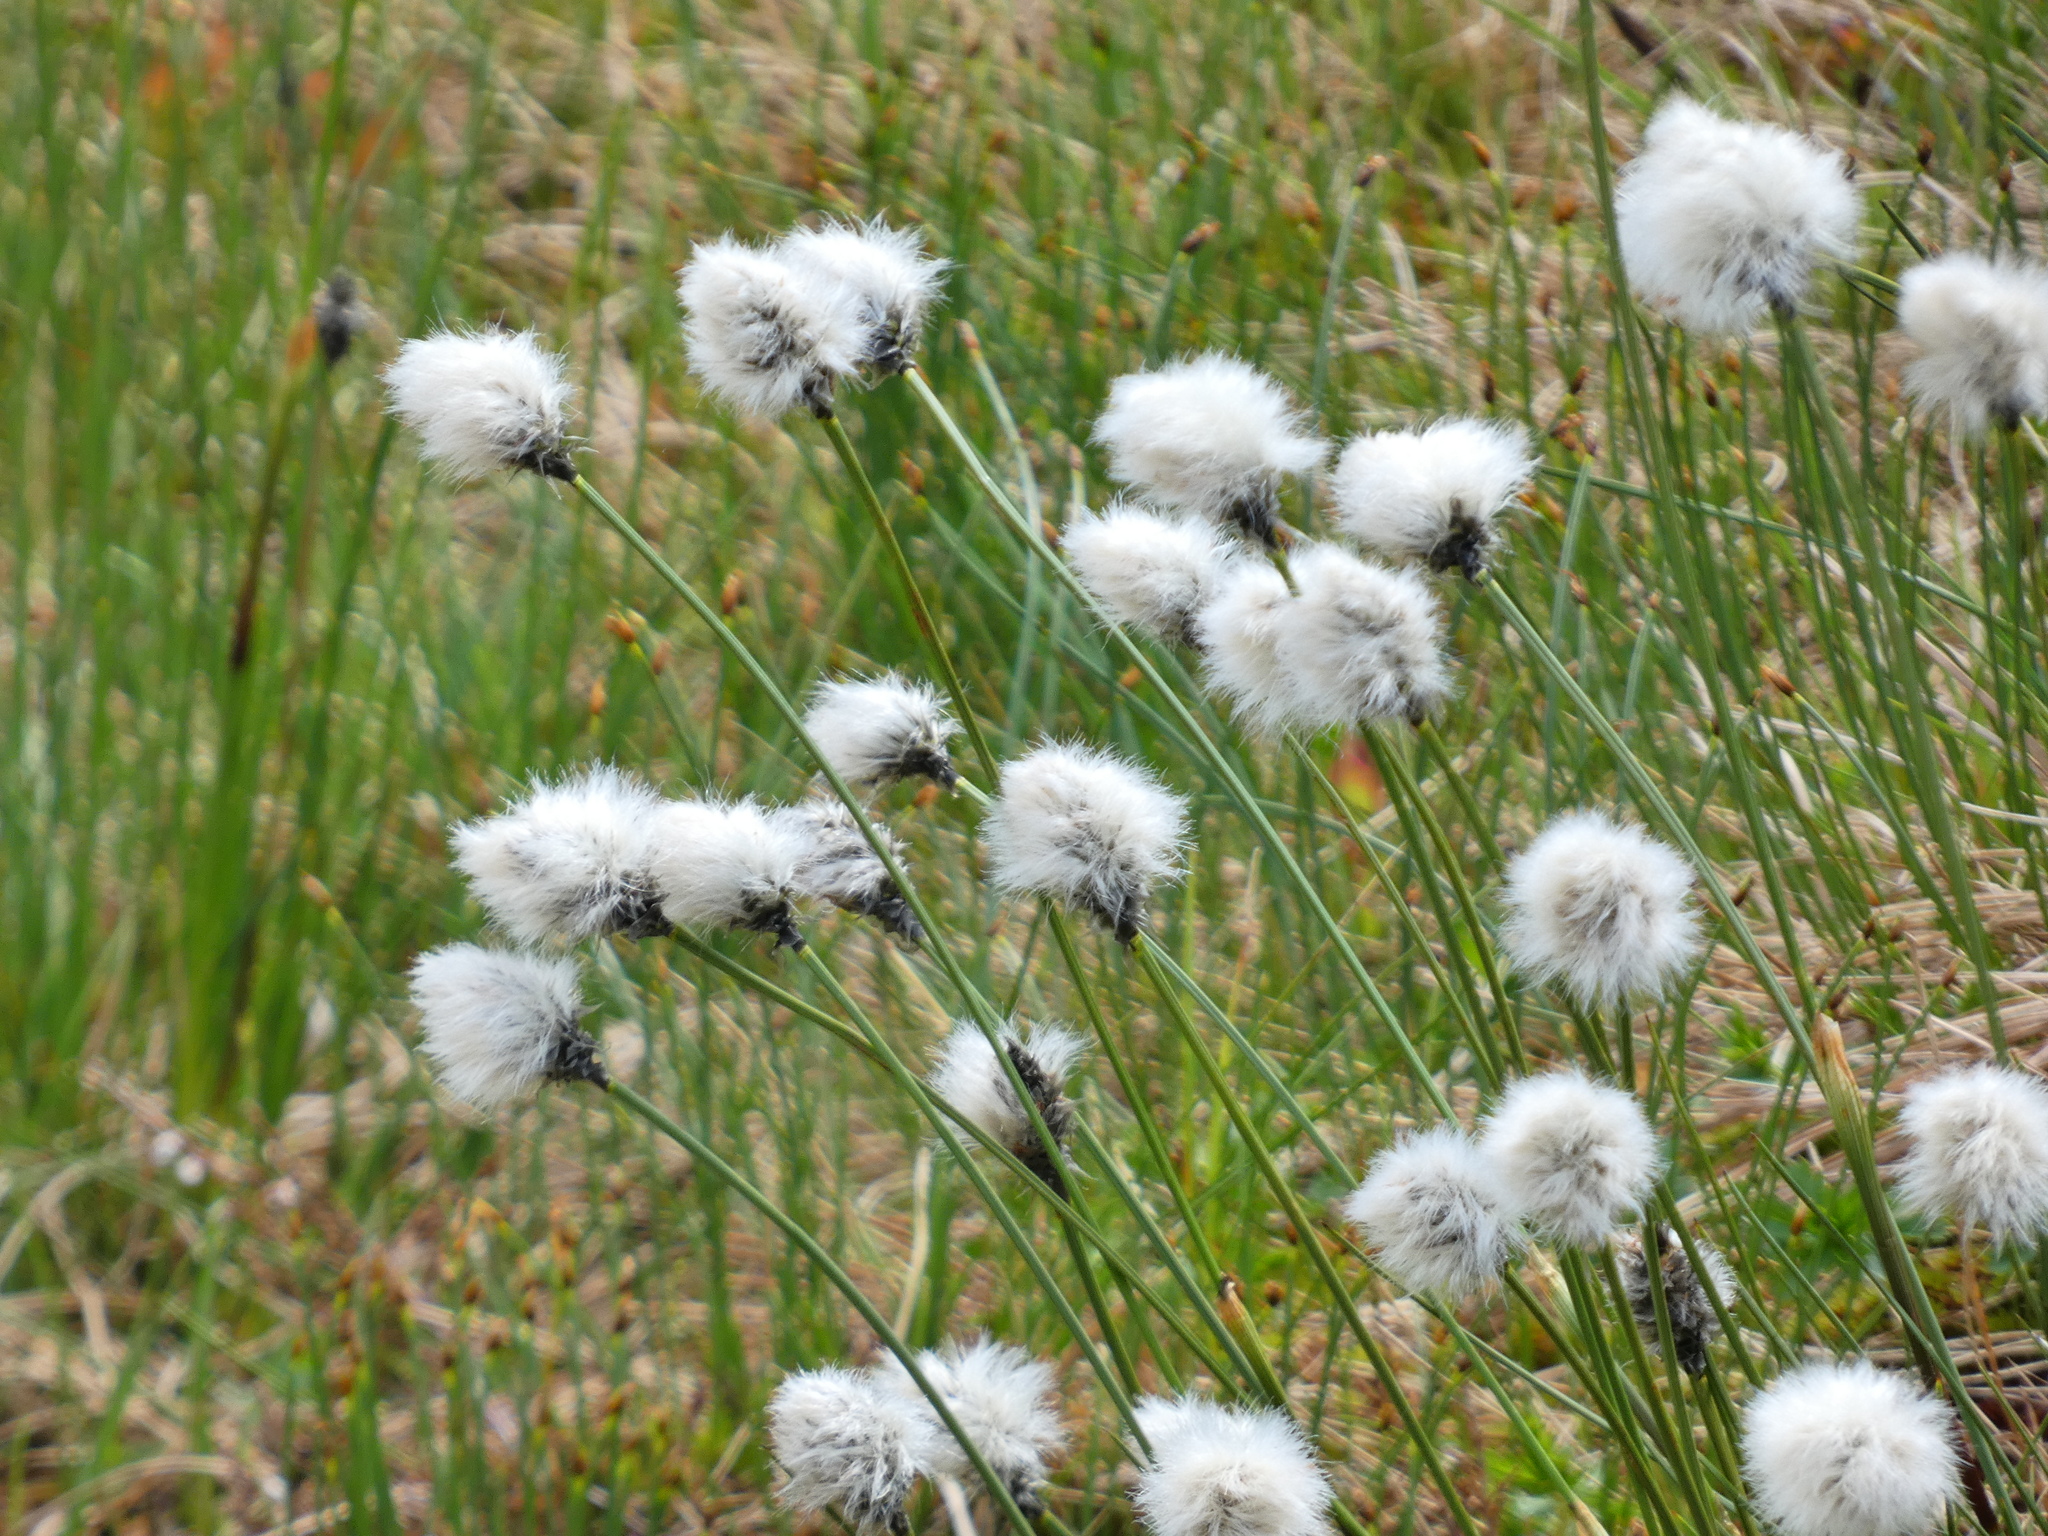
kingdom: Plantae
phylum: Tracheophyta
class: Liliopsida
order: Poales
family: Cyperaceae
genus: Eriophorum
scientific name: Eriophorum vaginatum
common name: Hare's-tail cottongrass
